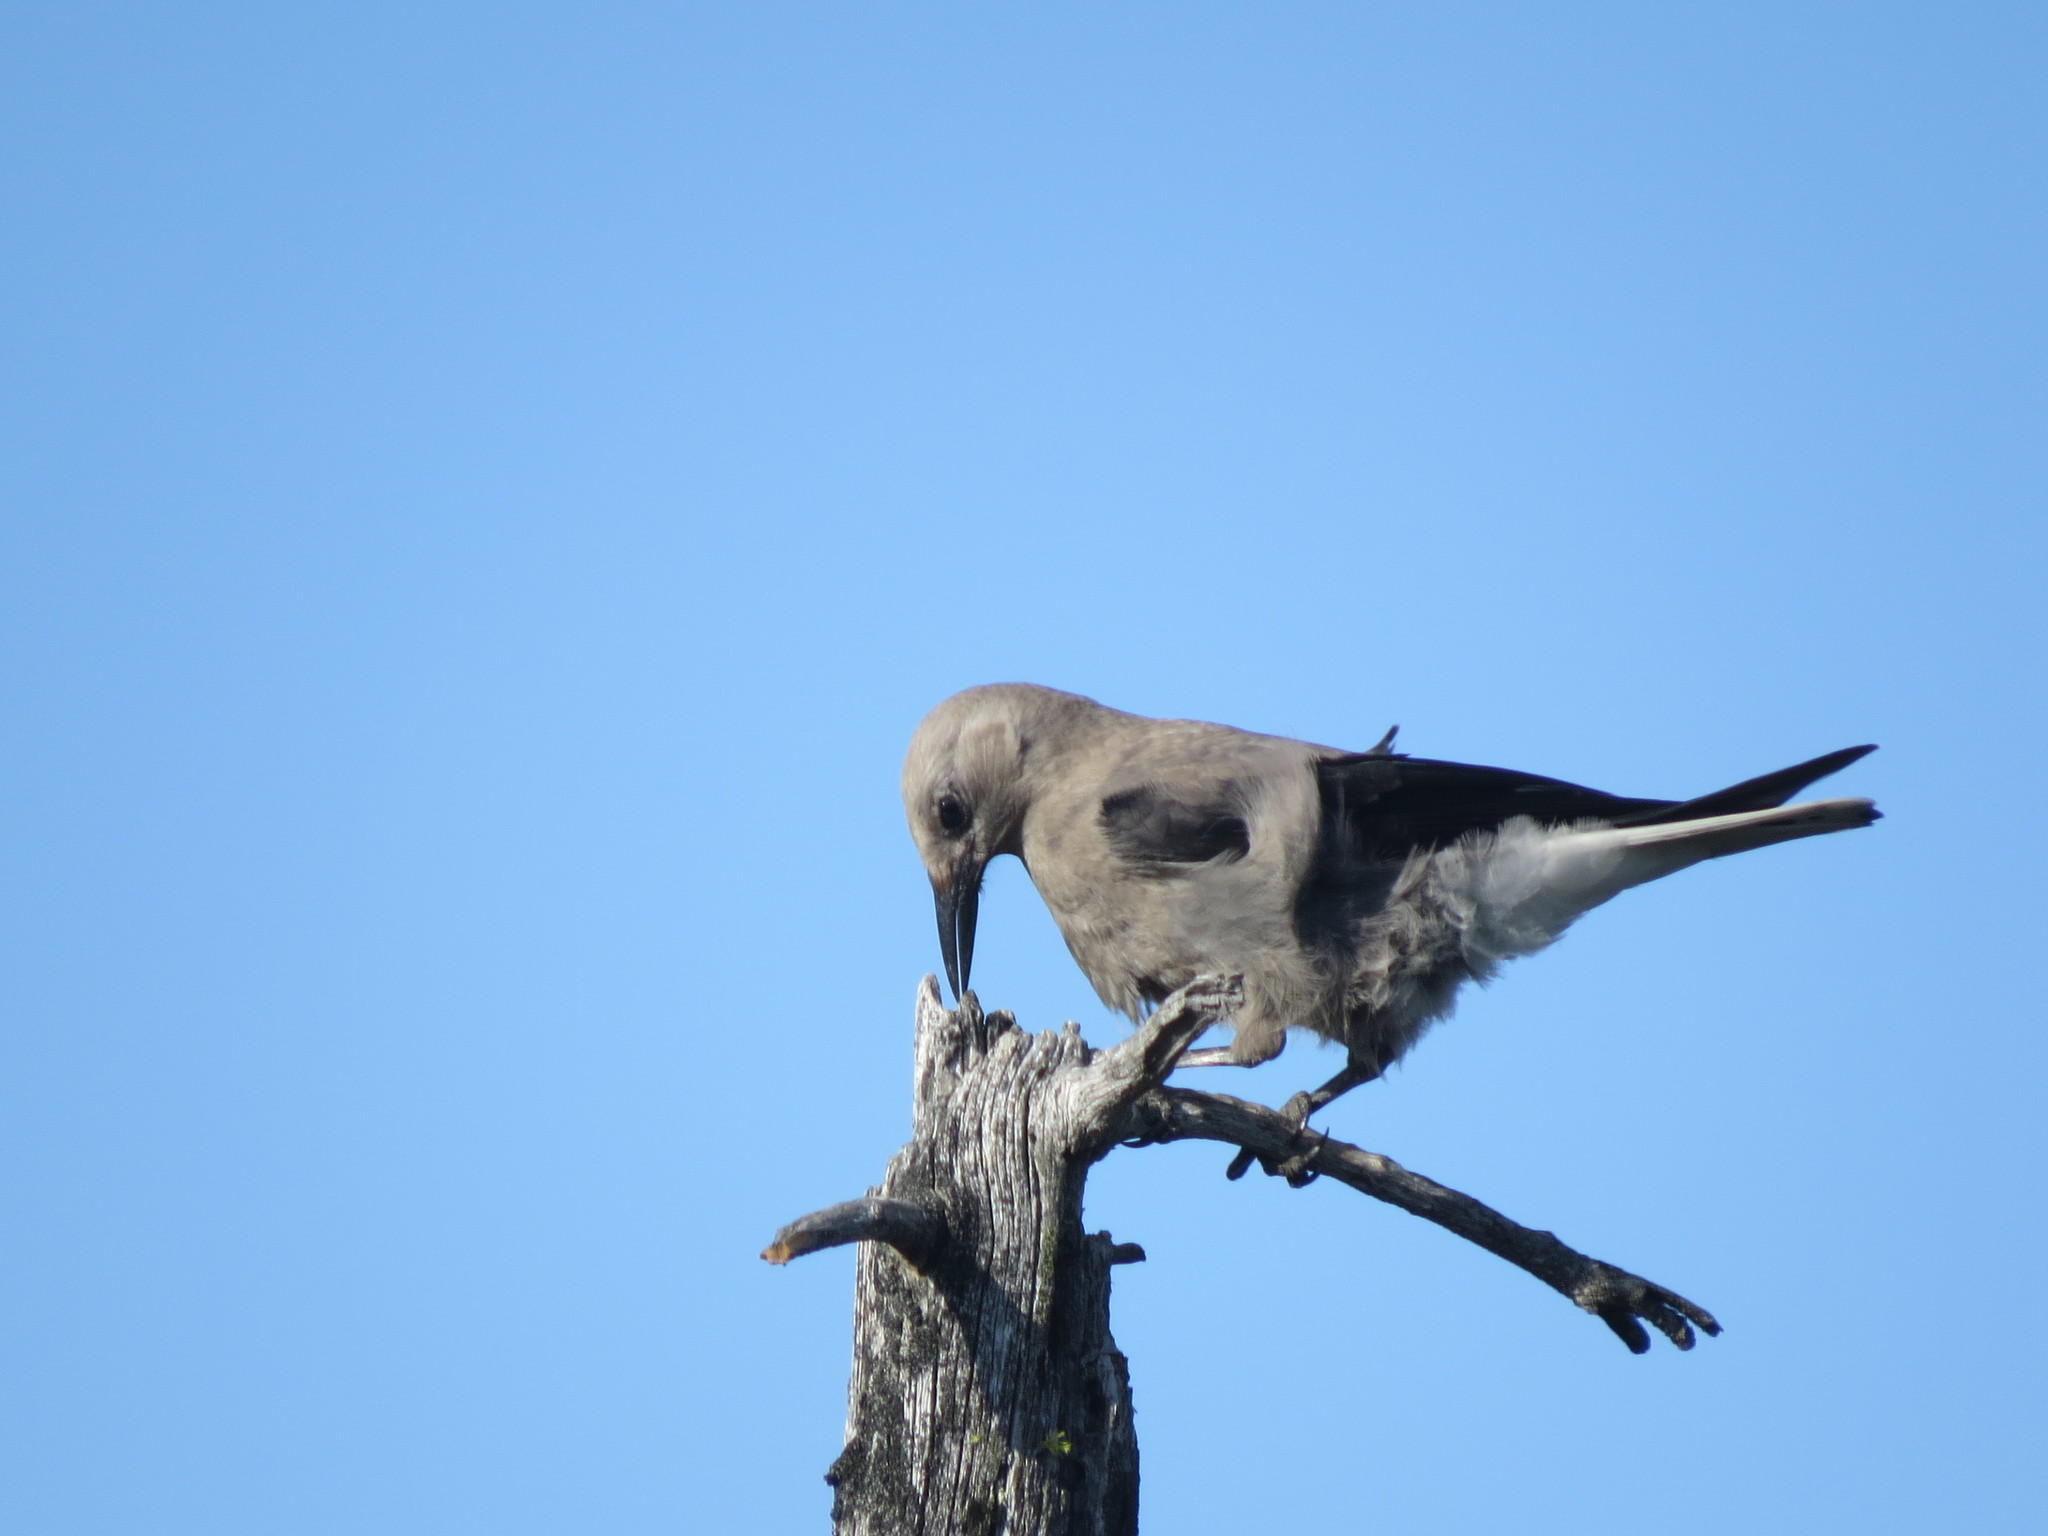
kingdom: Animalia
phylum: Chordata
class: Aves
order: Passeriformes
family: Corvidae
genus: Nucifraga
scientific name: Nucifraga columbiana
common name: Clark's nutcracker
